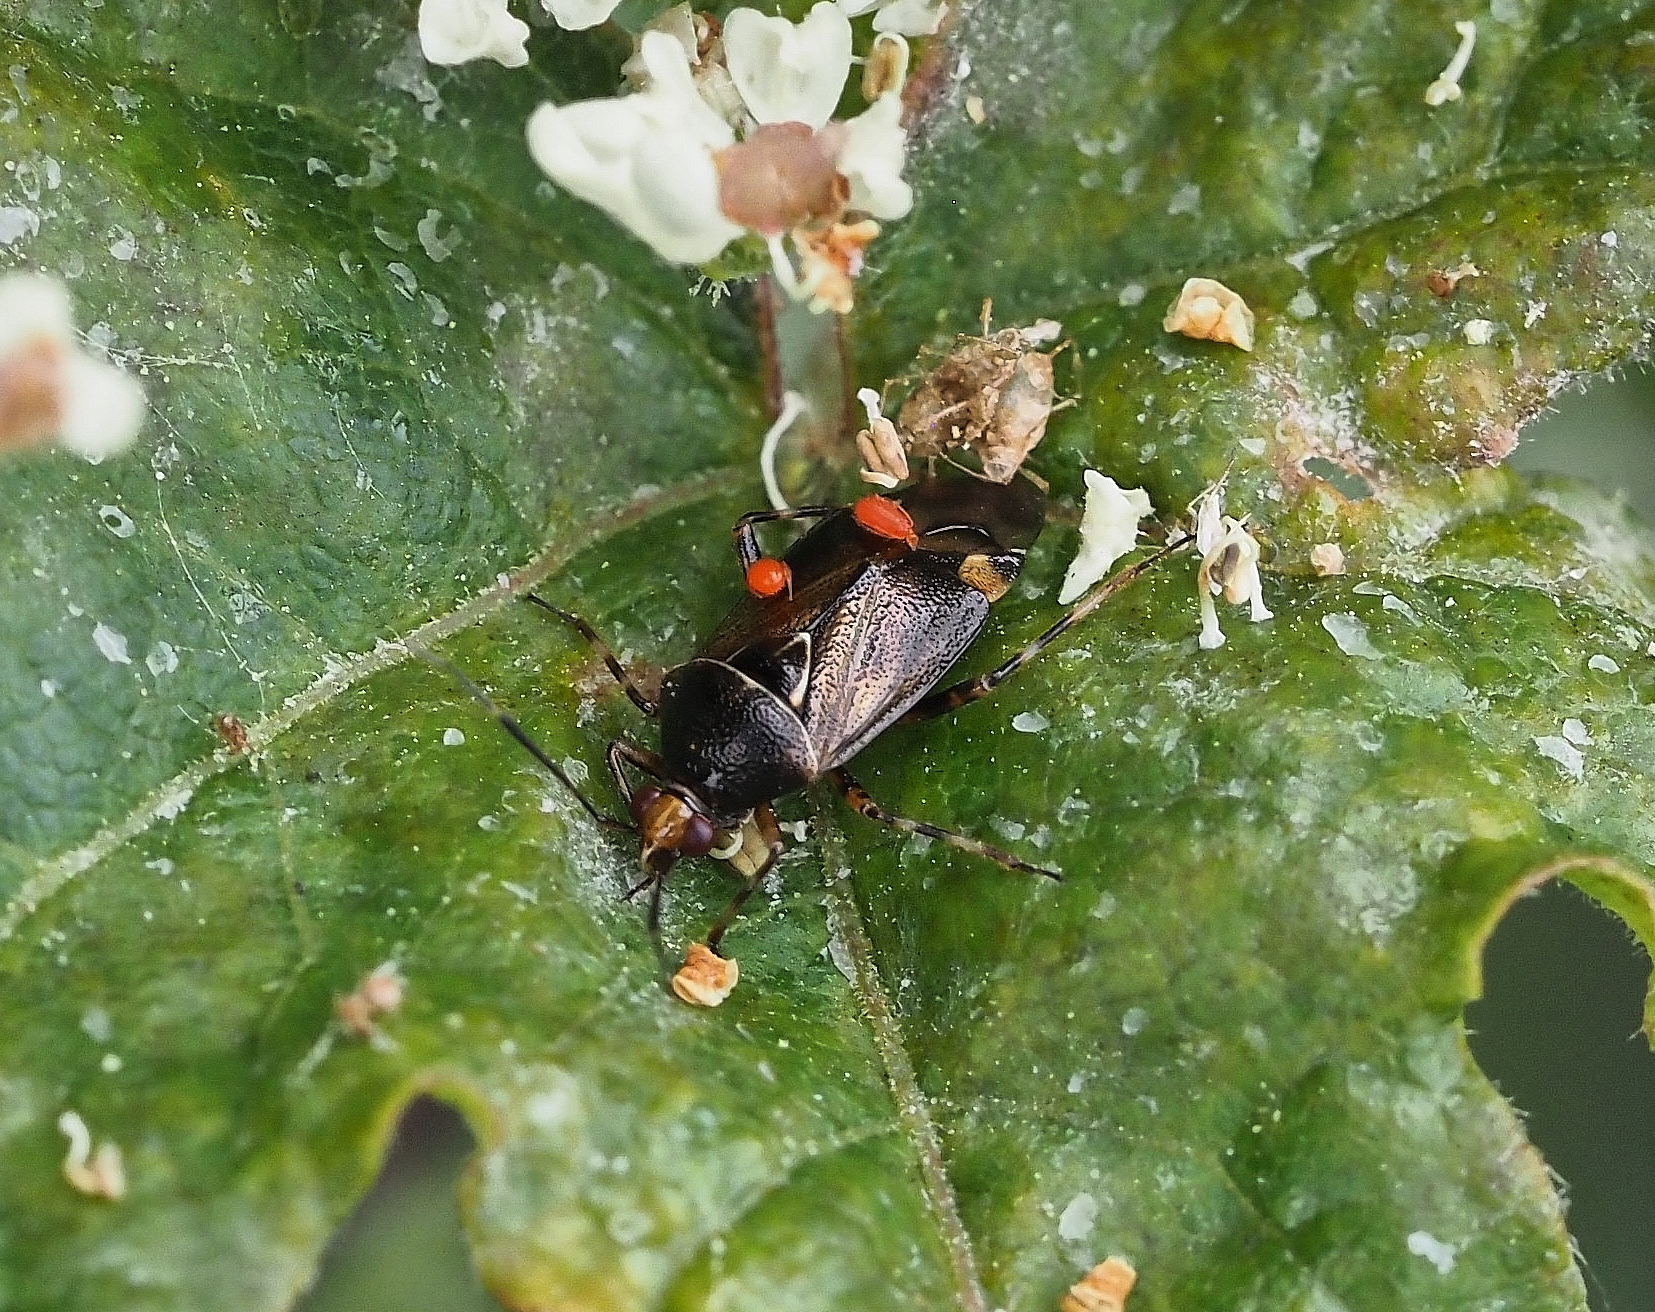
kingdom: Animalia
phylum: Arthropoda
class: Insecta
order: Hemiptera
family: Miridae
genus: Deraeocoris
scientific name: Deraeocoris flavilinea
